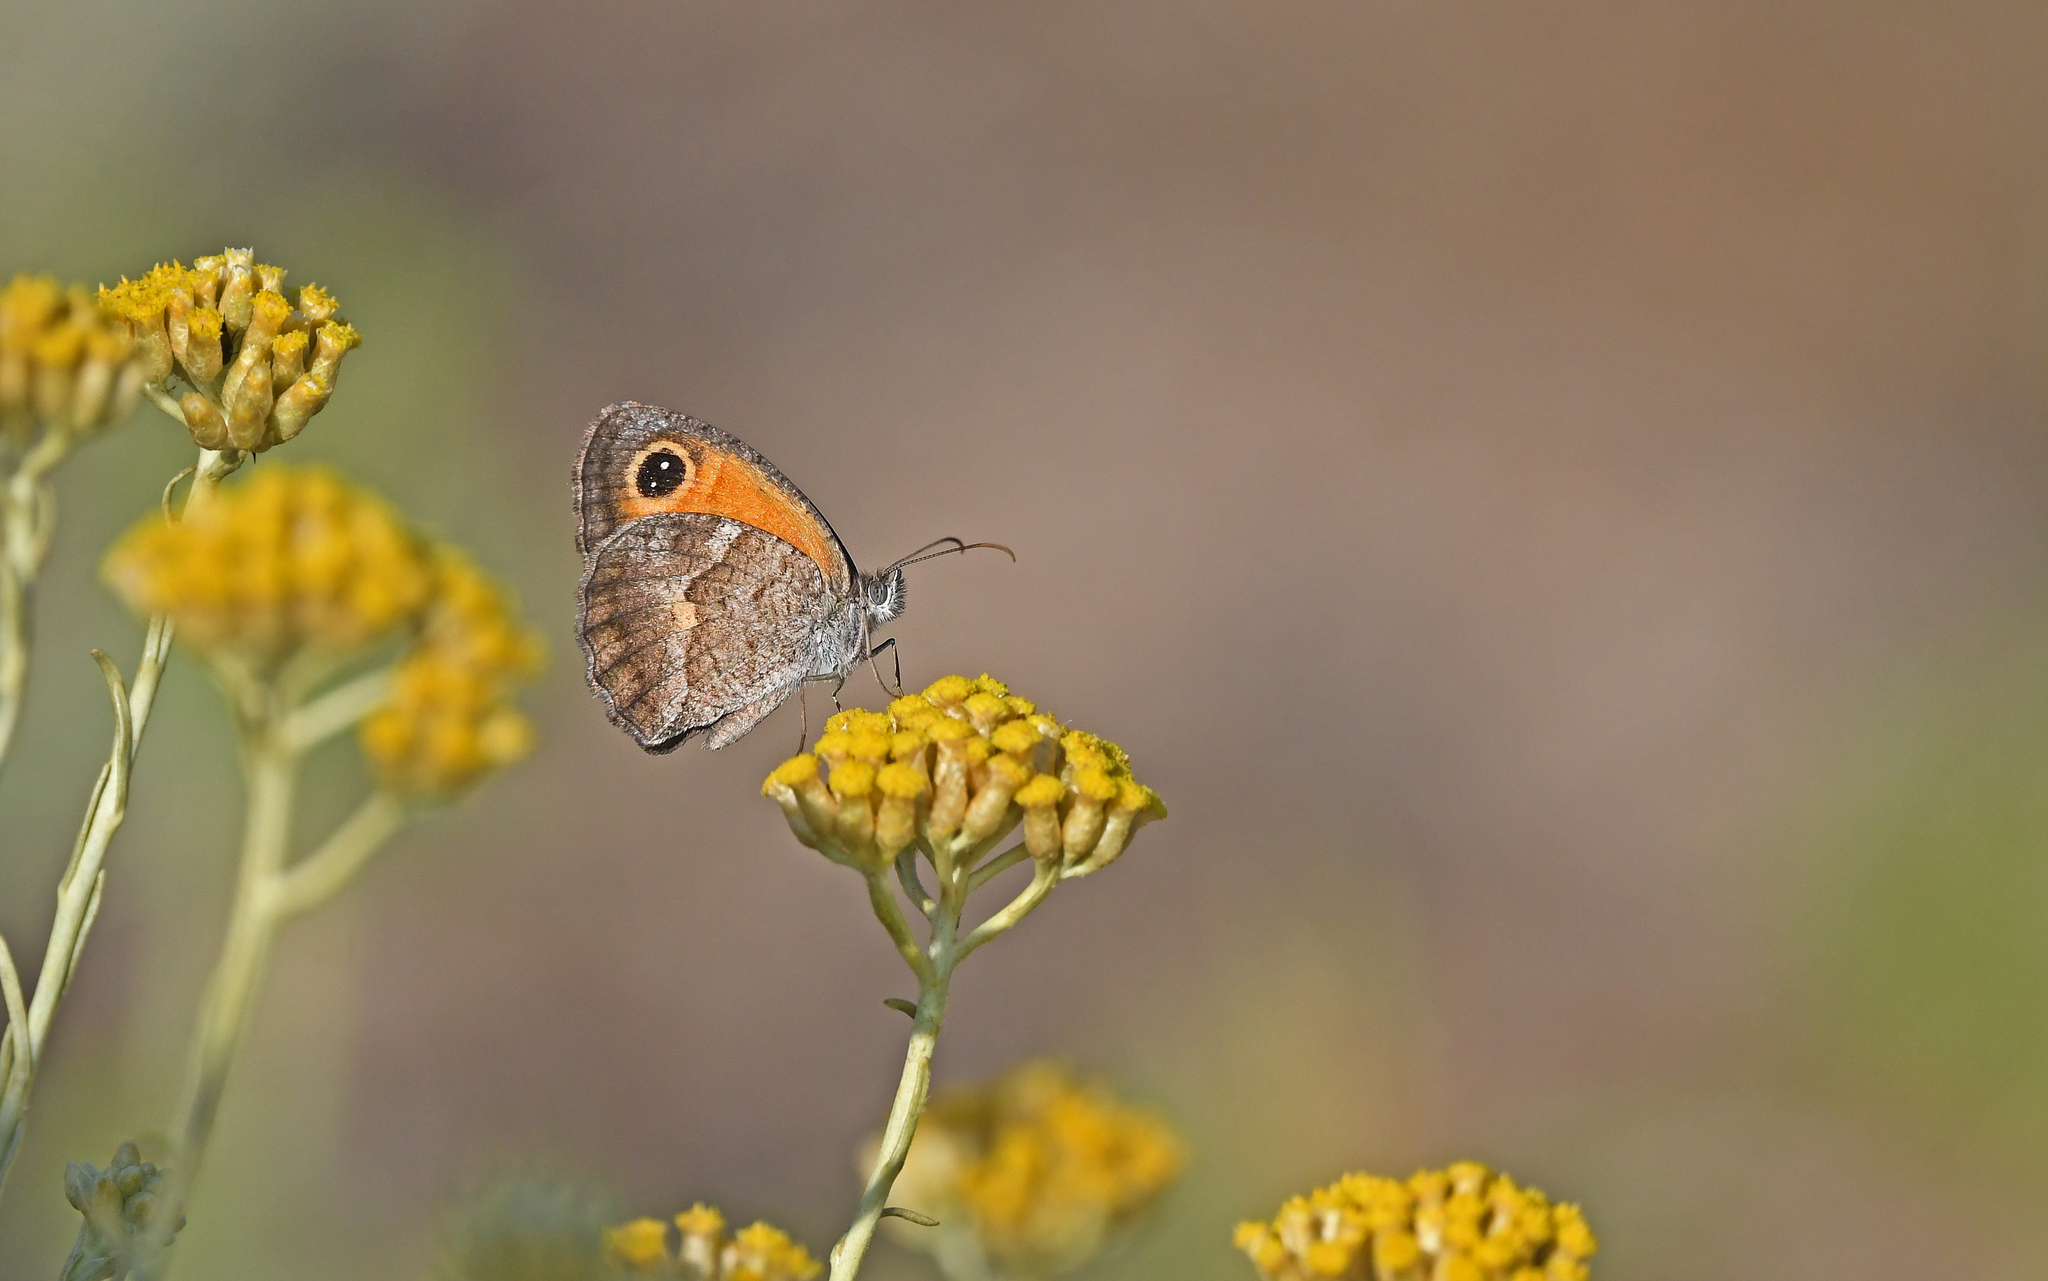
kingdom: Animalia
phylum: Arthropoda
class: Insecta
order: Lepidoptera
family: Nymphalidae
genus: Pyronia
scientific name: Pyronia cecilia
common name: Southern gatekeeper
